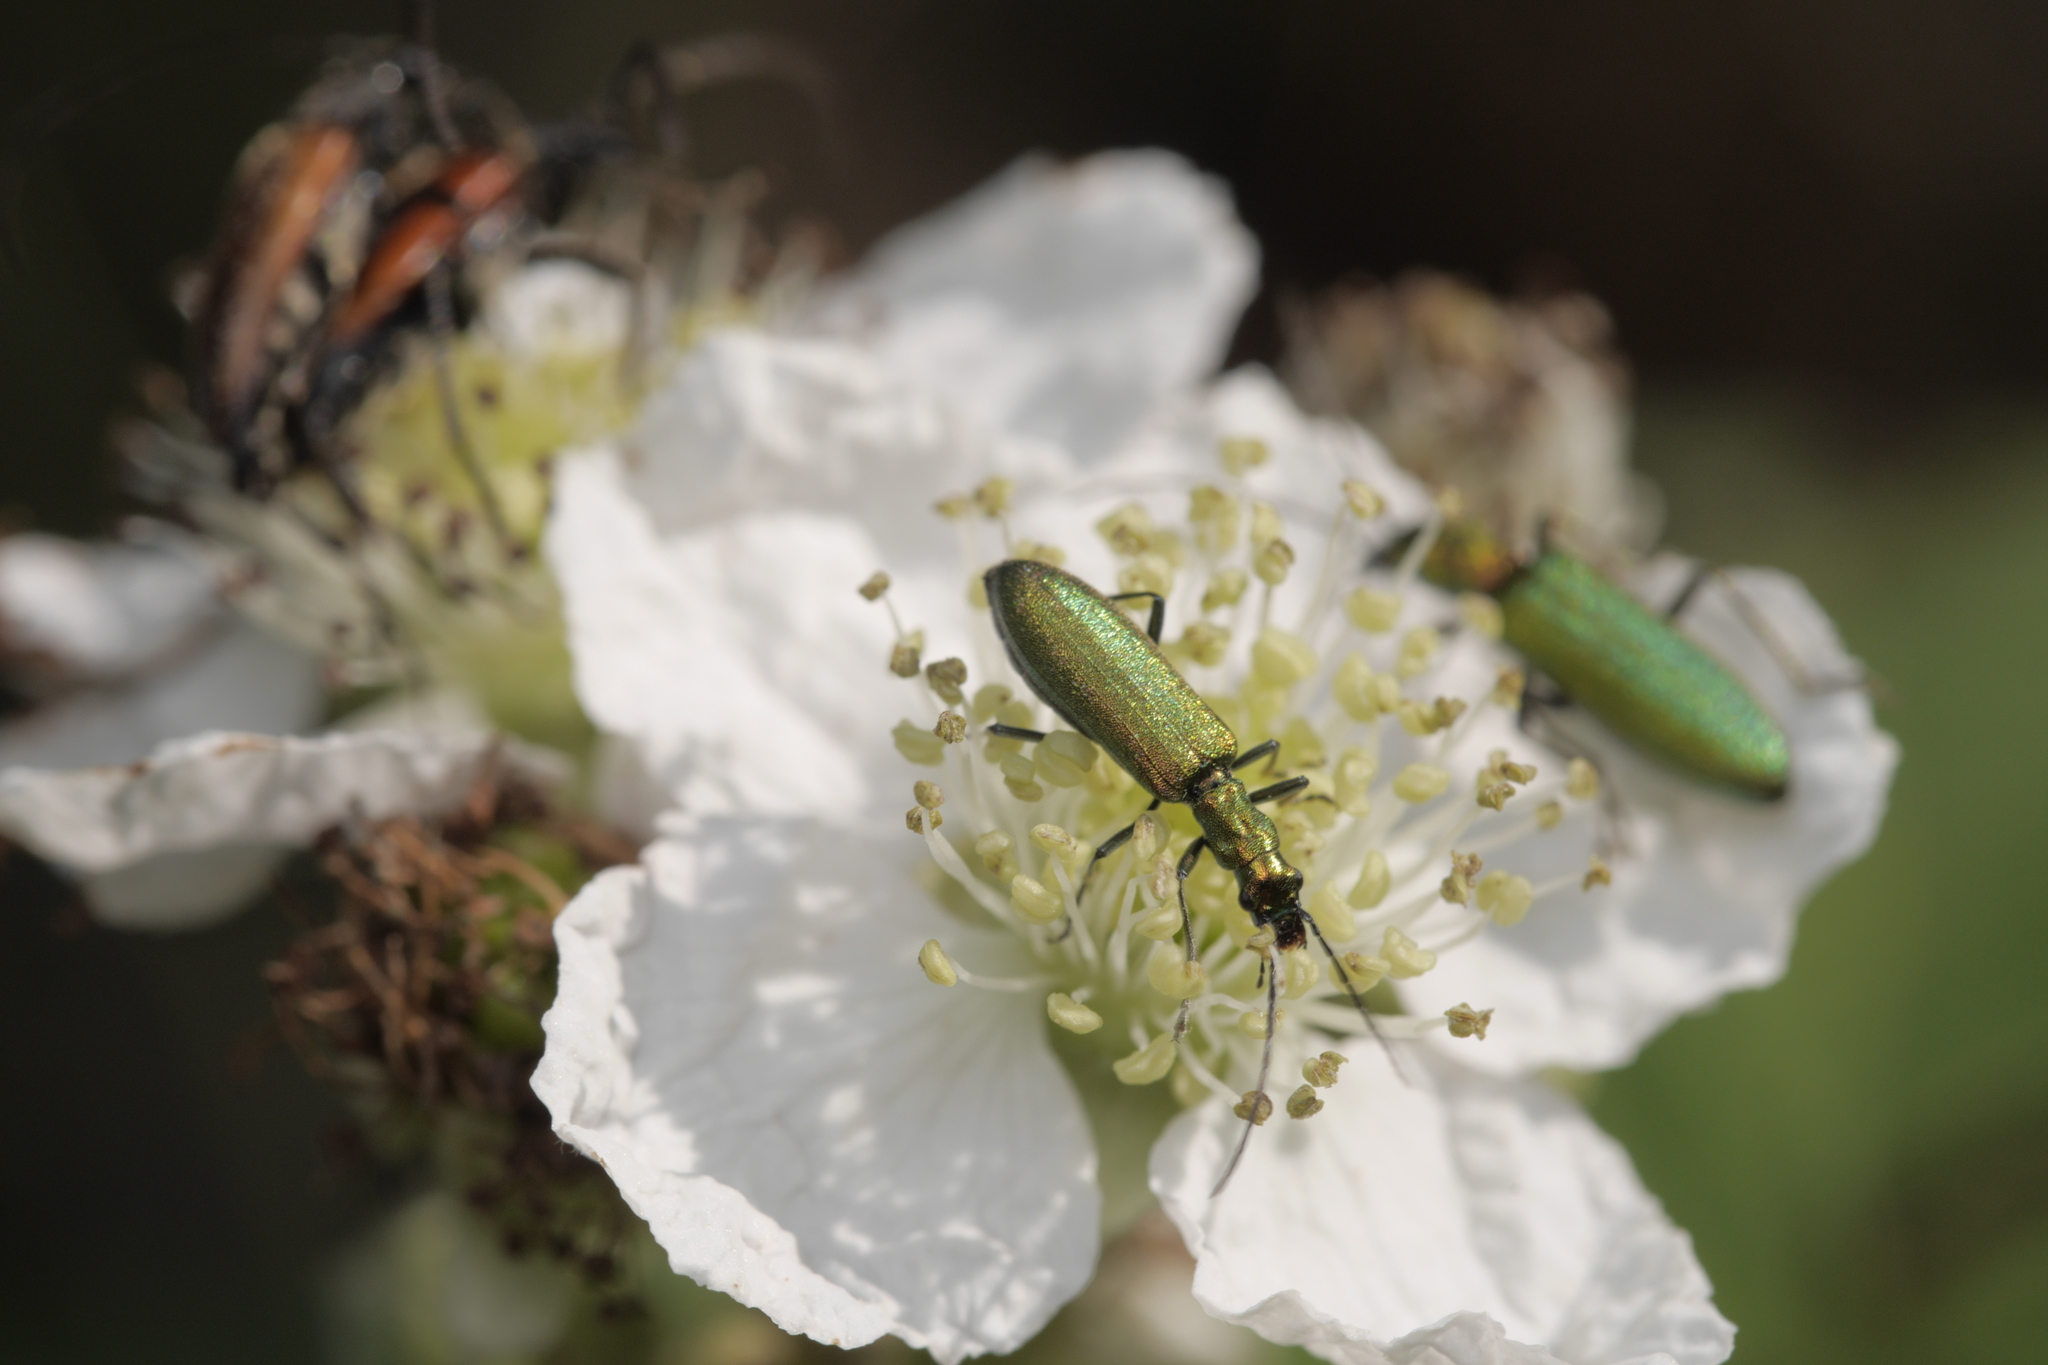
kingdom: Animalia
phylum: Arthropoda
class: Insecta
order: Coleoptera
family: Oedemeridae
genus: Chrysanthia
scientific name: Chrysanthia viridissima
